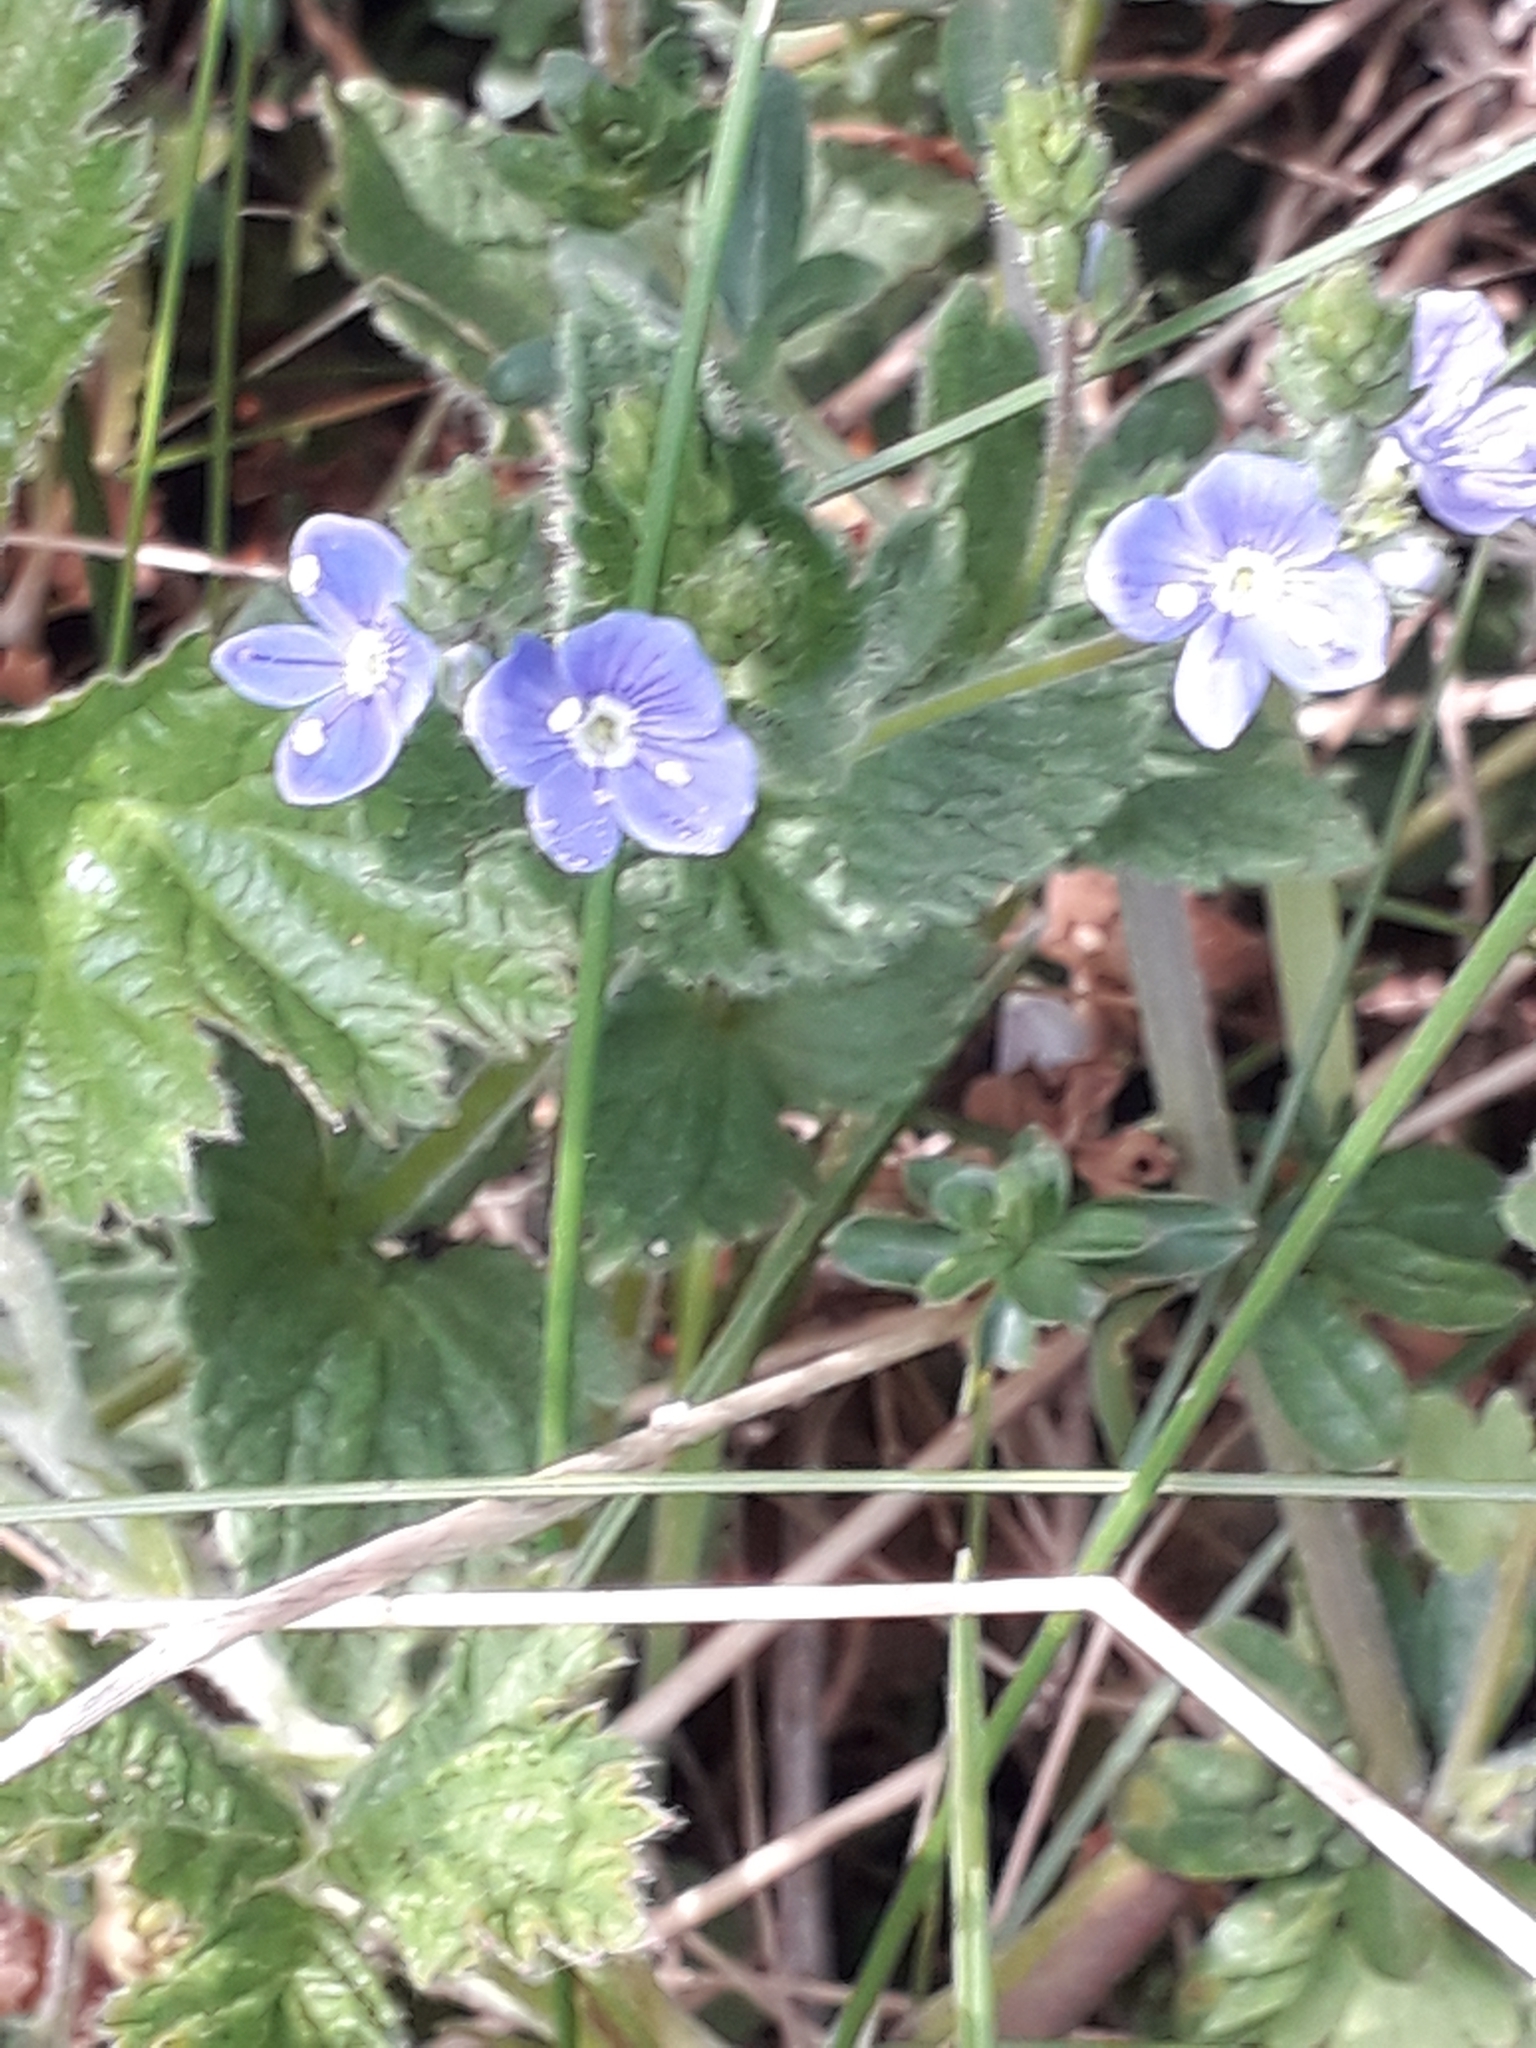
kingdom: Plantae
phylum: Tracheophyta
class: Magnoliopsida
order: Lamiales
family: Plantaginaceae
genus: Veronica
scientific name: Veronica chamaedrys
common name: Germander speedwell
